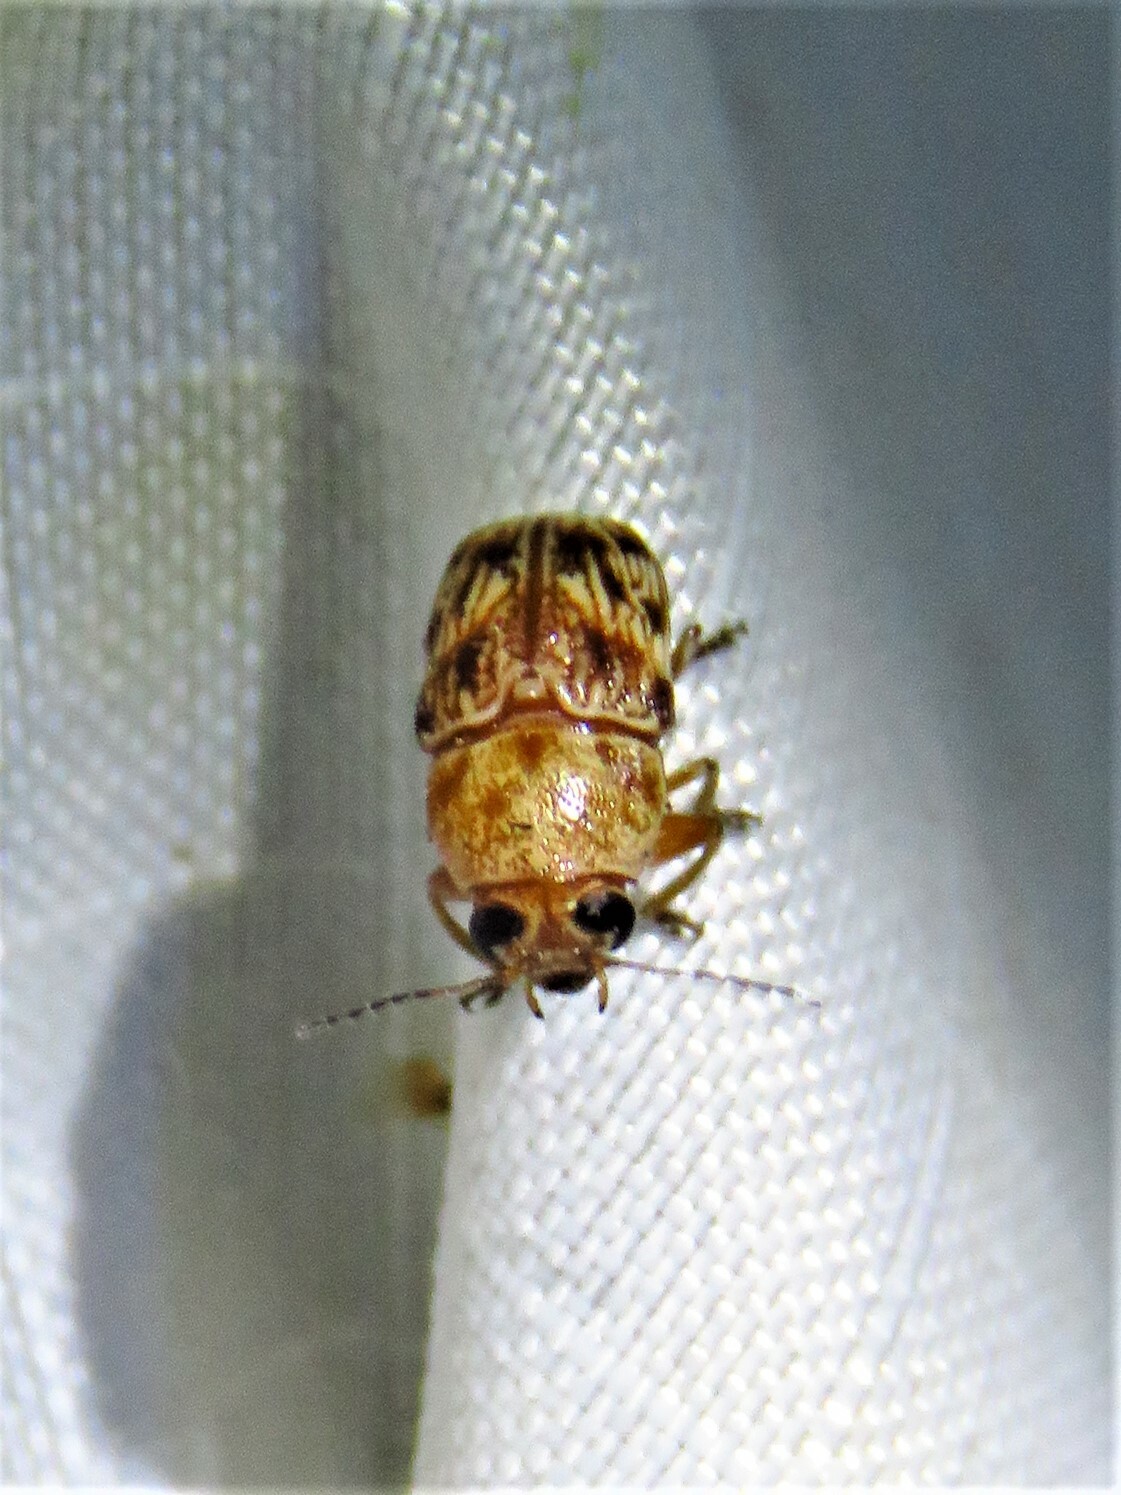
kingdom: Animalia
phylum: Arthropoda
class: Insecta
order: Coleoptera
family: Chrysomelidae
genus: Pachybrachis
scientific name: Pachybrachis
